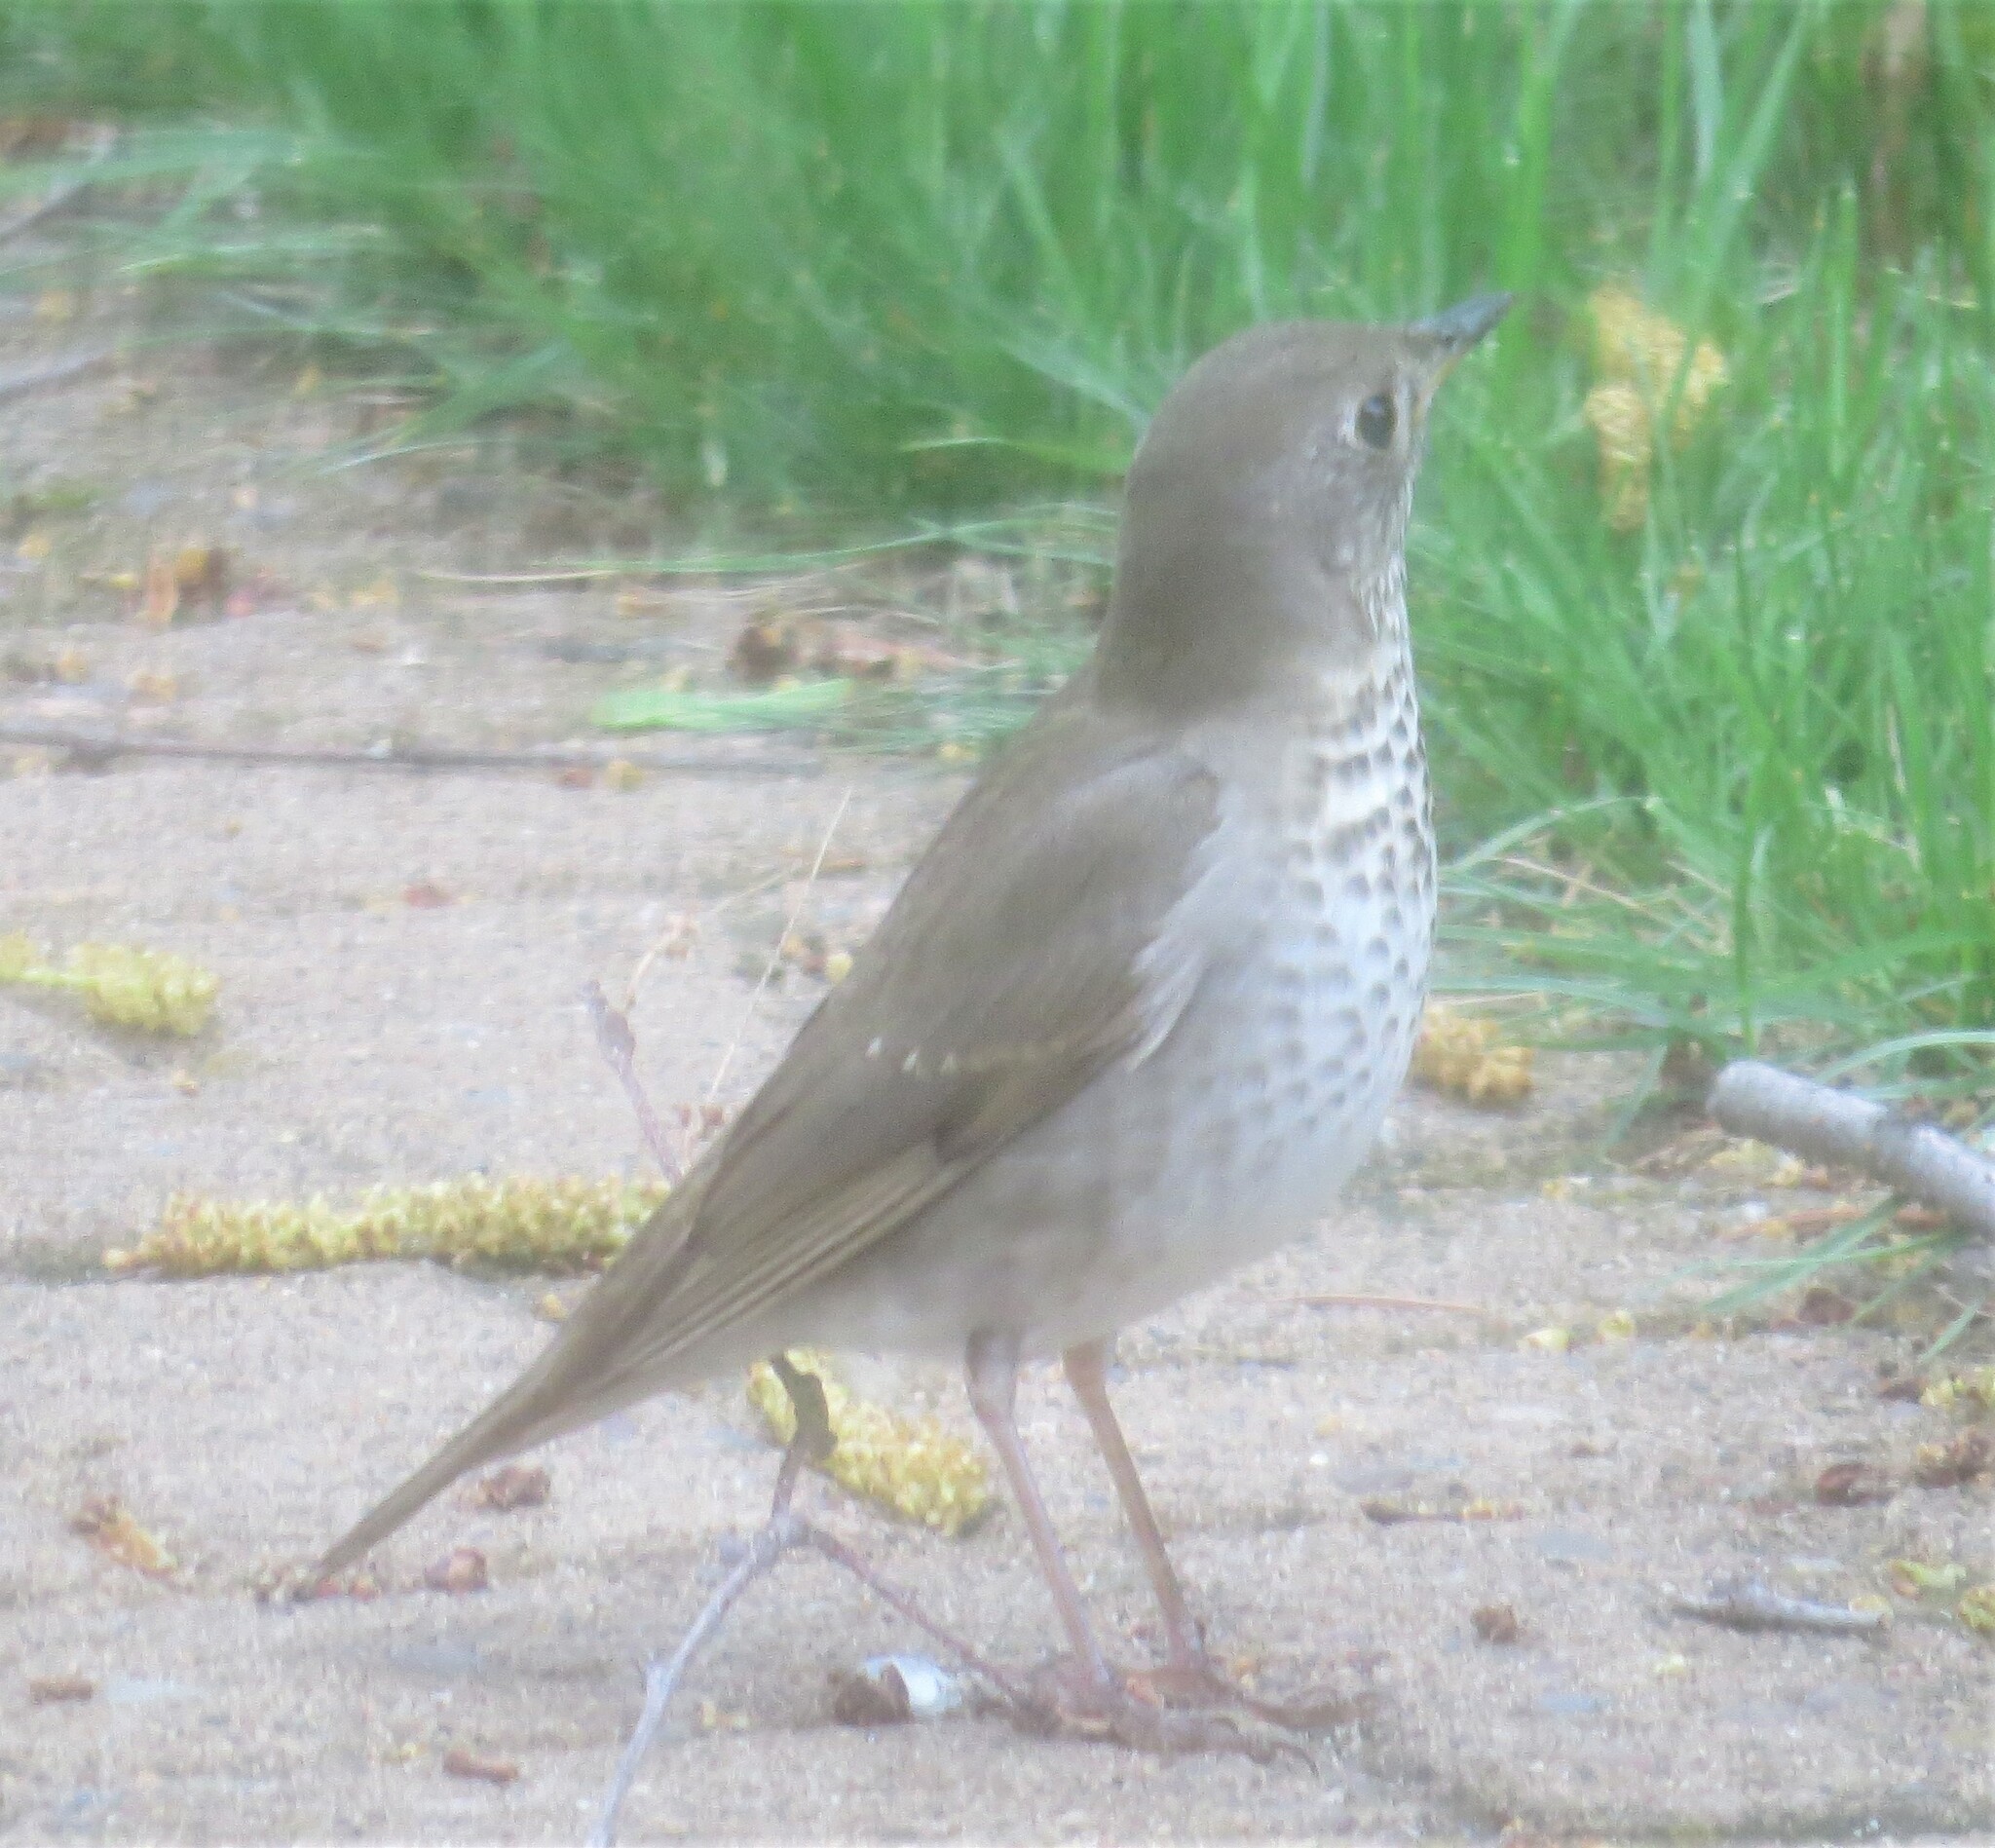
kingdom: Animalia
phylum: Chordata
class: Aves
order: Passeriformes
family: Turdidae
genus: Catharus
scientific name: Catharus minimus
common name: Grey-cheeked thrush
